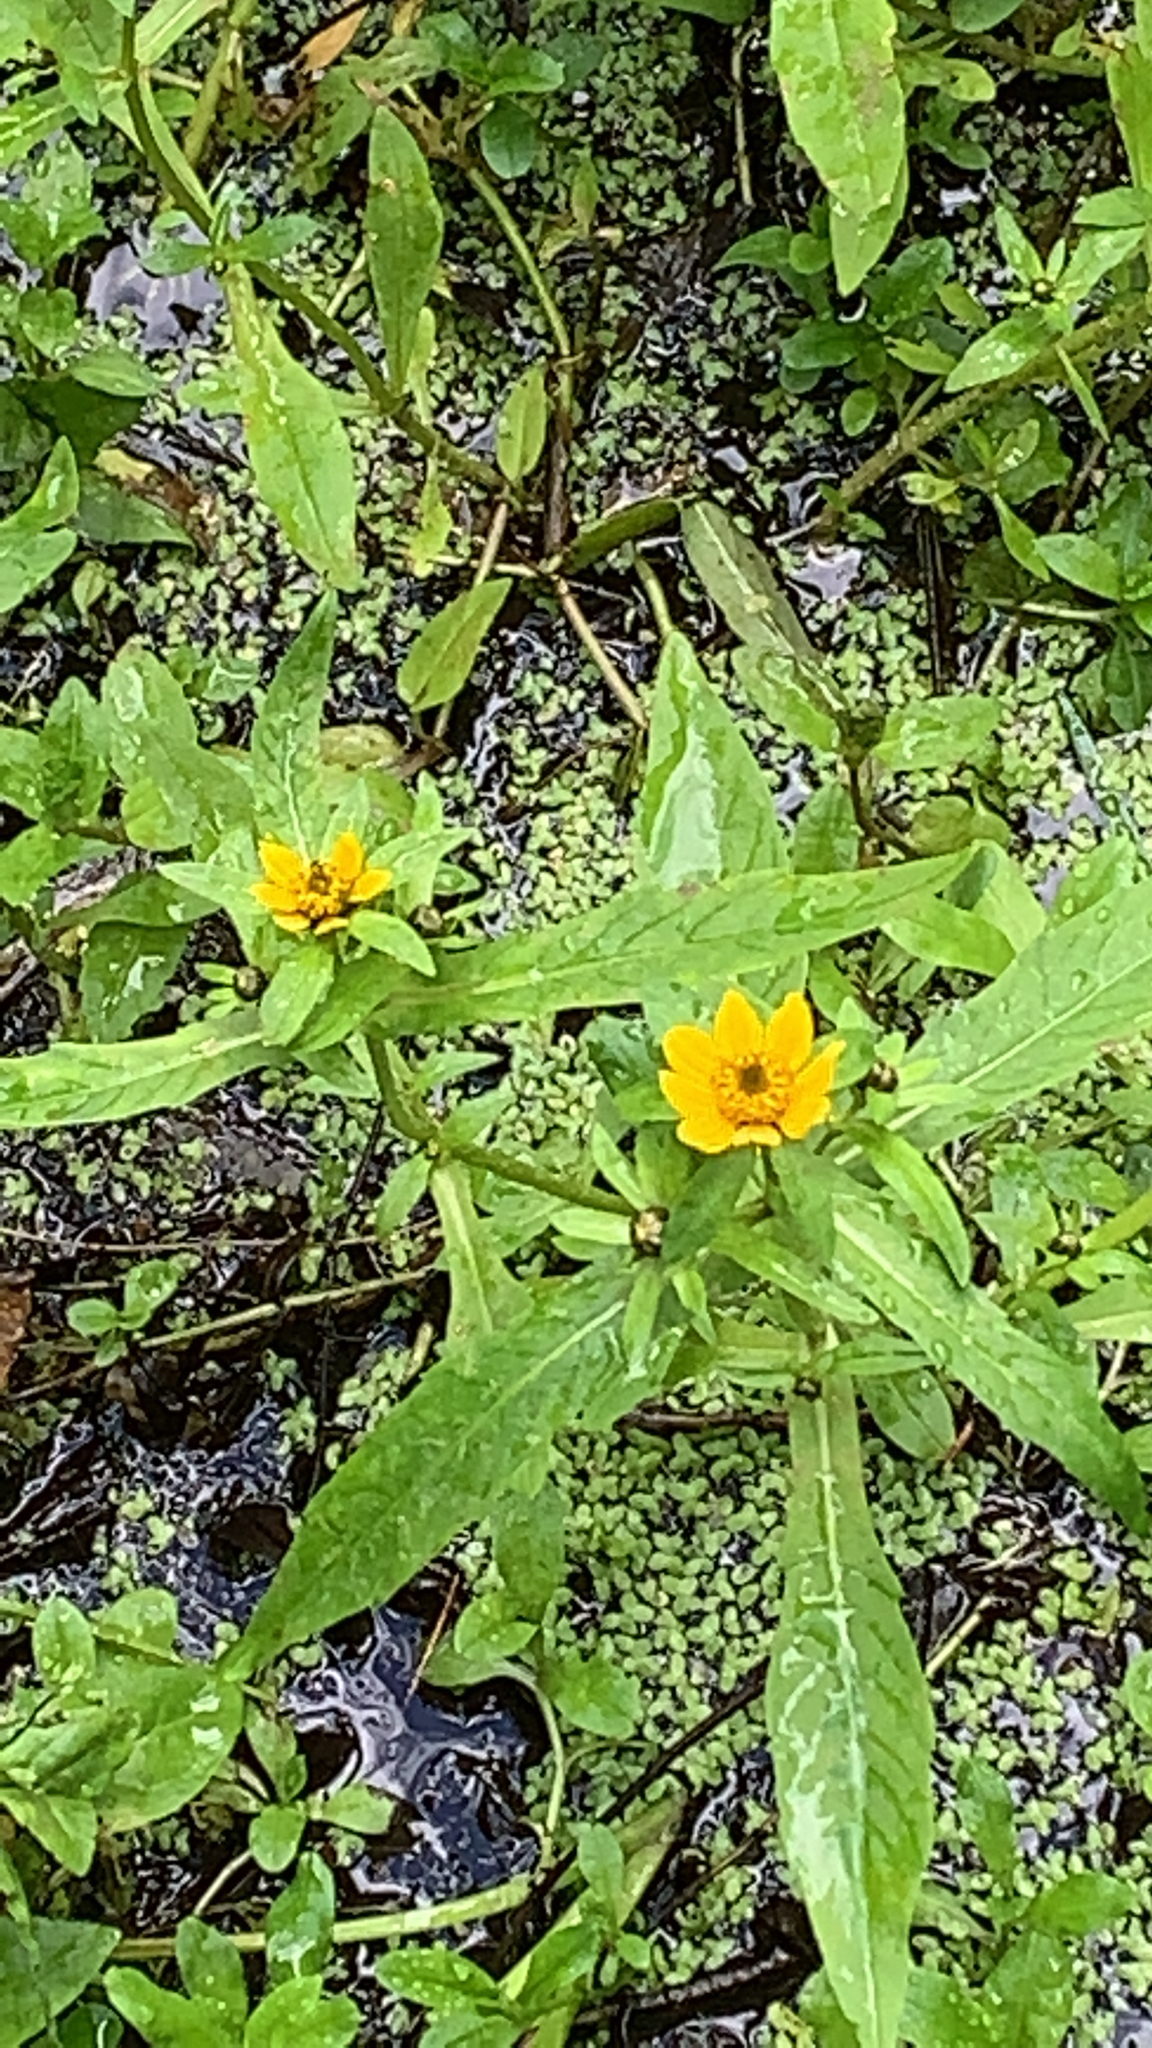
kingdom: Plantae
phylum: Tracheophyta
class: Magnoliopsida
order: Asterales
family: Asteraceae
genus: Bidens
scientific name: Bidens cernua
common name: Nodding bur-marigold
